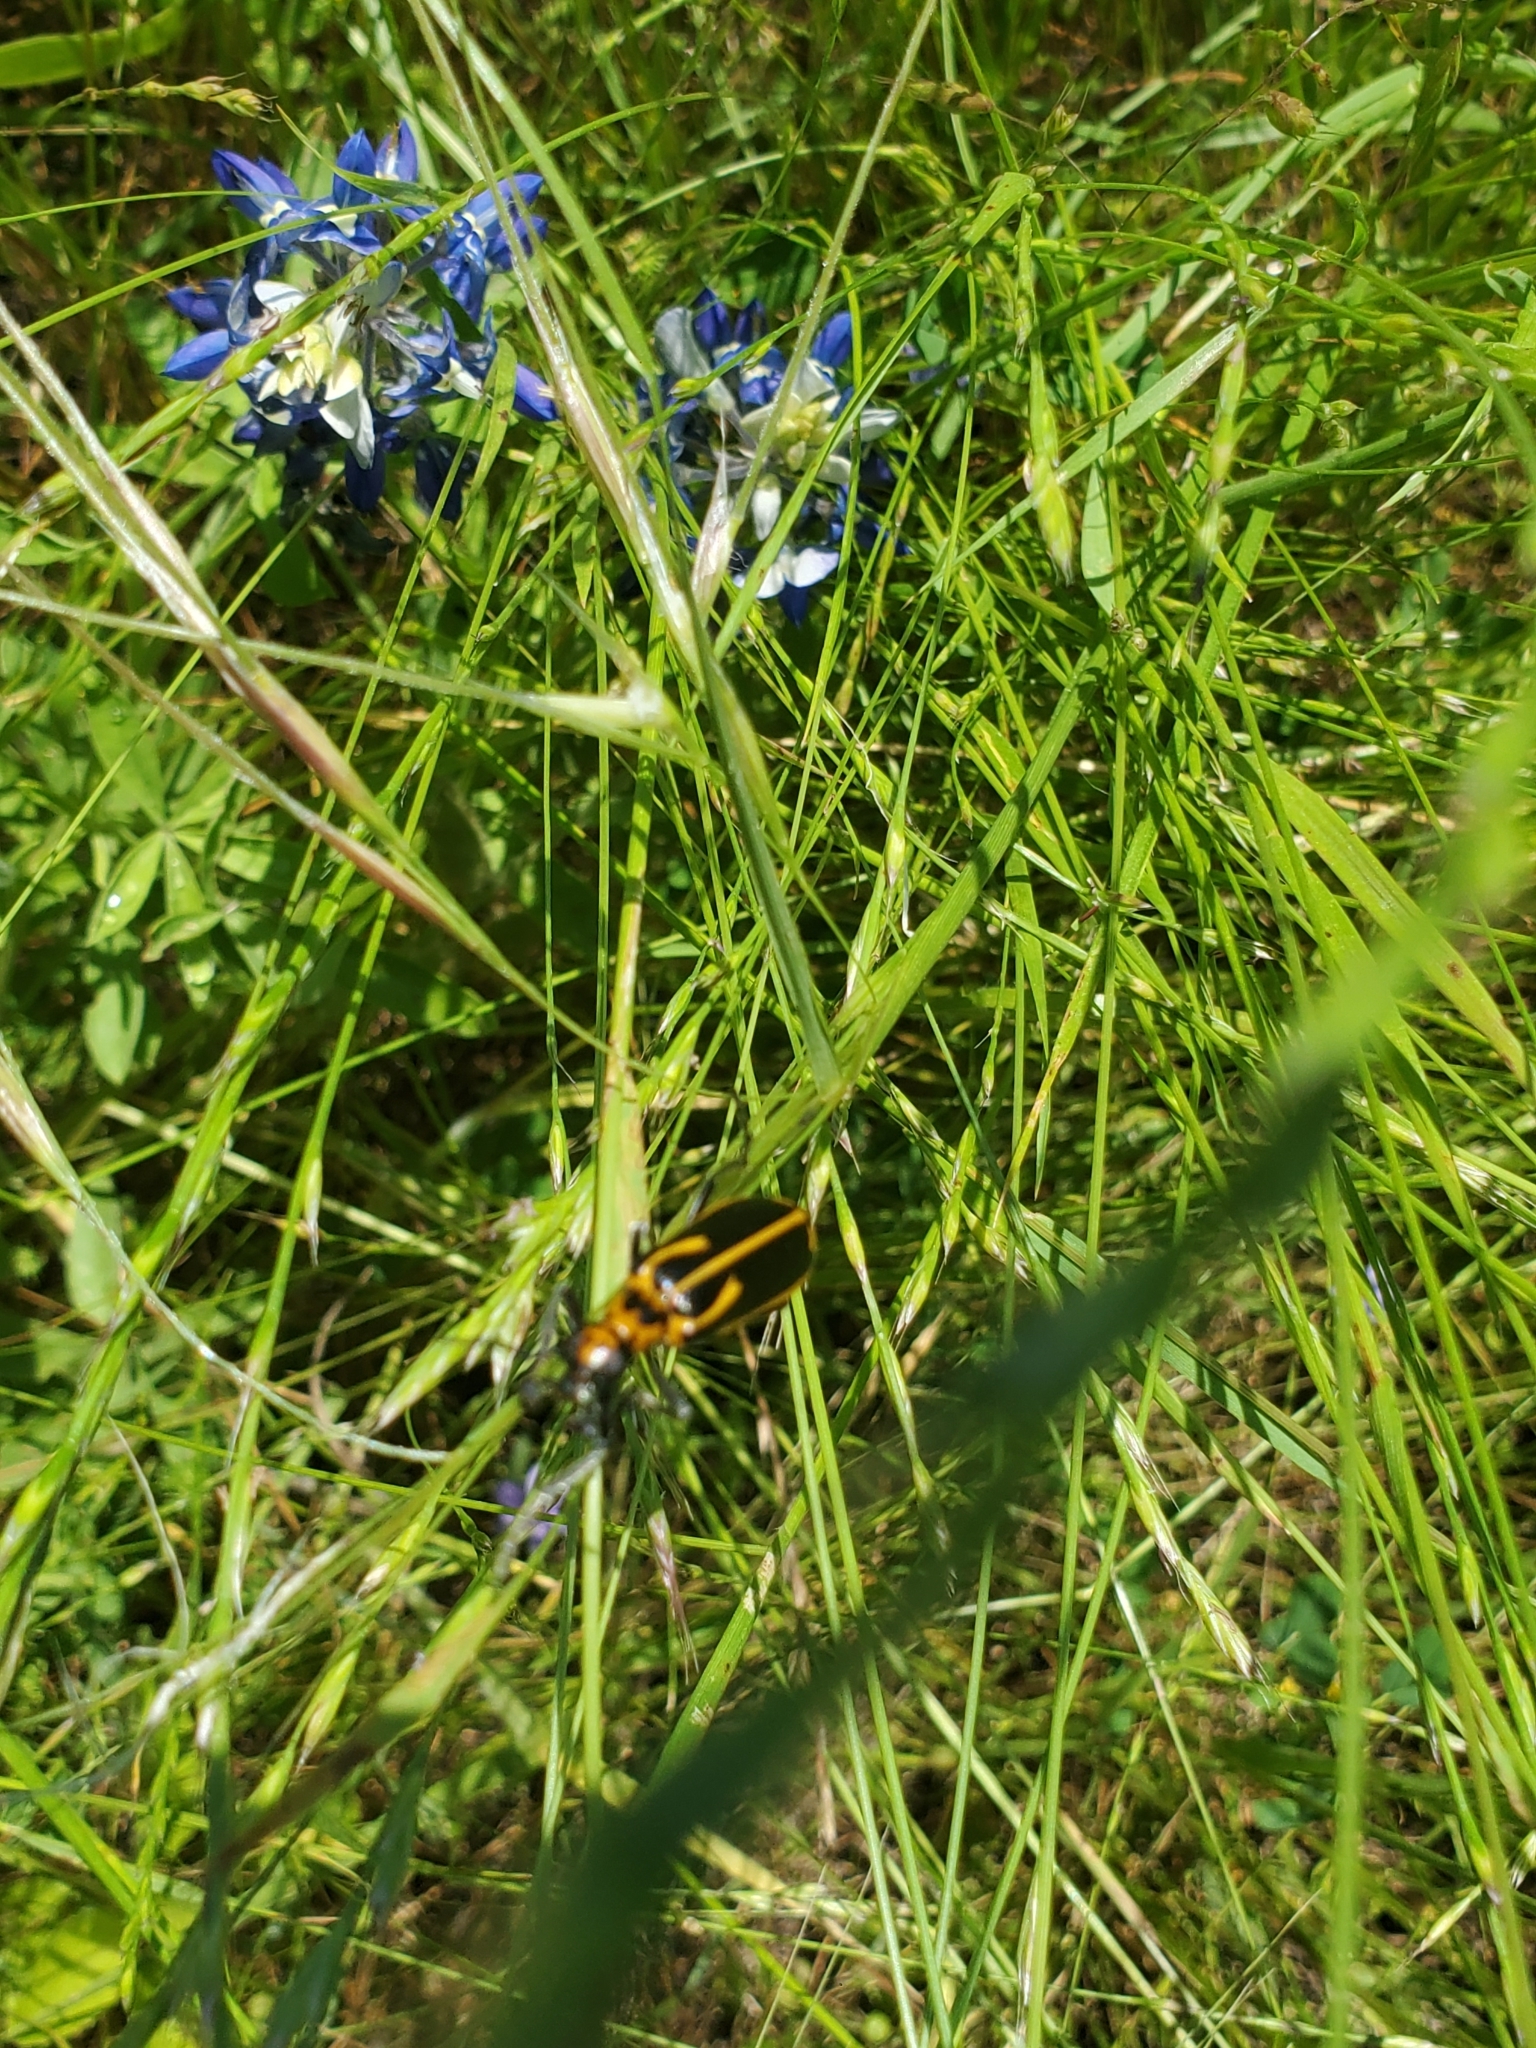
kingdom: Animalia
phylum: Arthropoda
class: Insecta
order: Coleoptera
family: Meloidae
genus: Pyrota
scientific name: Pyrota insulata
